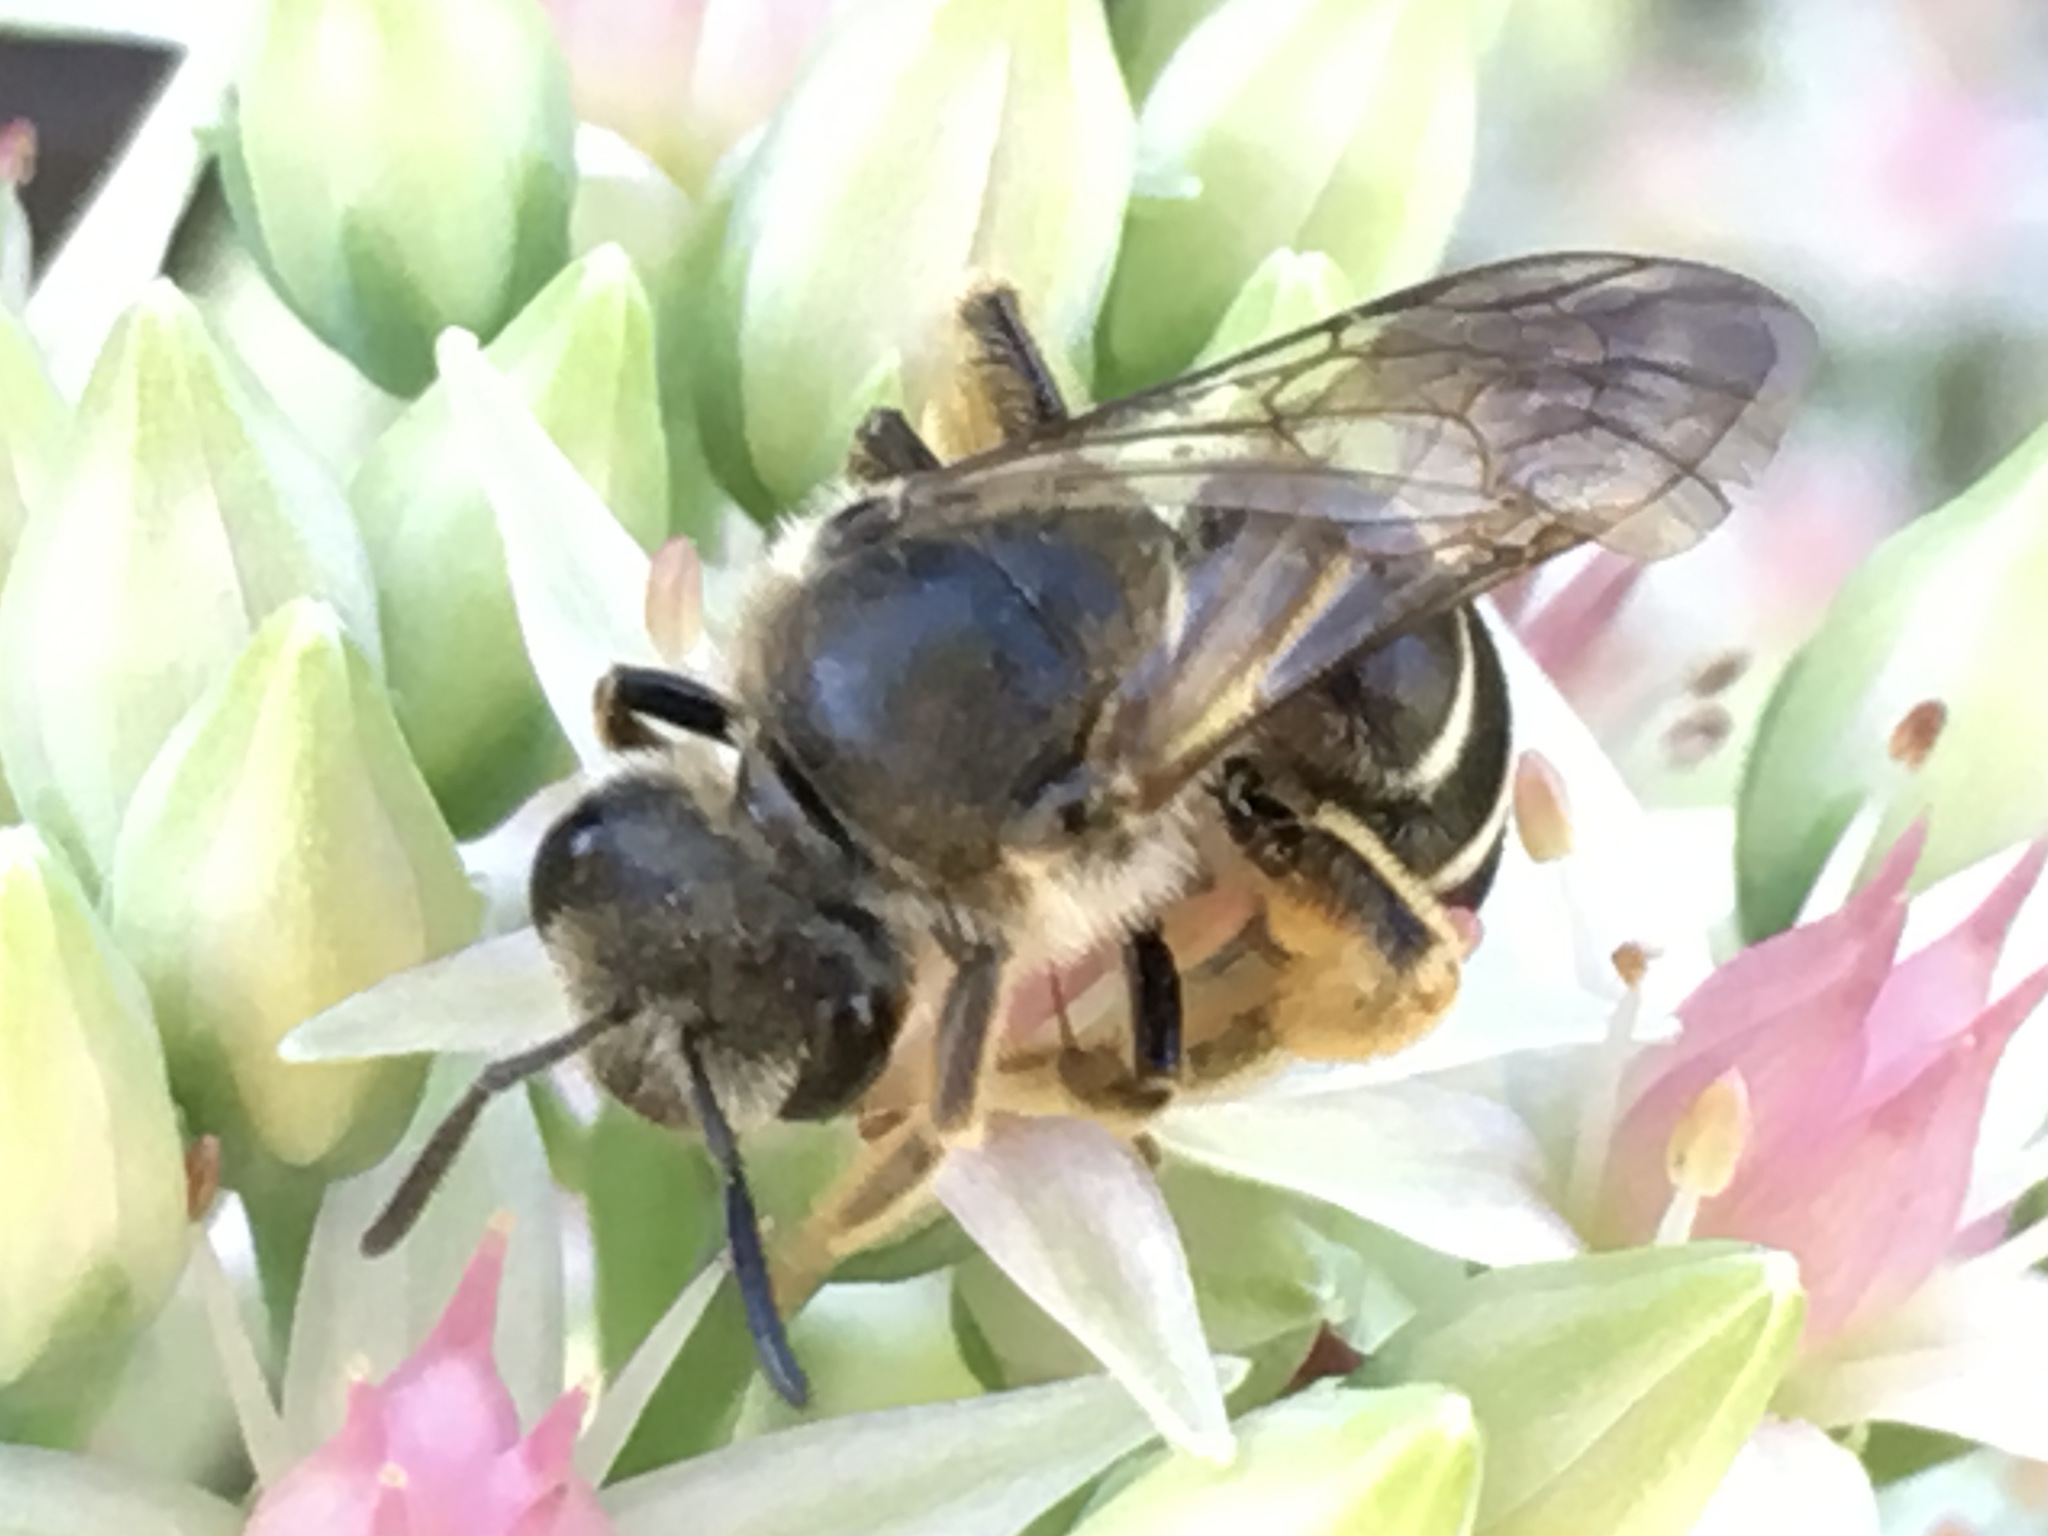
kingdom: Animalia
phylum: Arthropoda
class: Insecta
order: Hymenoptera
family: Halictidae
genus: Halictus
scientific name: Halictus rubicundus
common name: Orange-legged furrow bee
